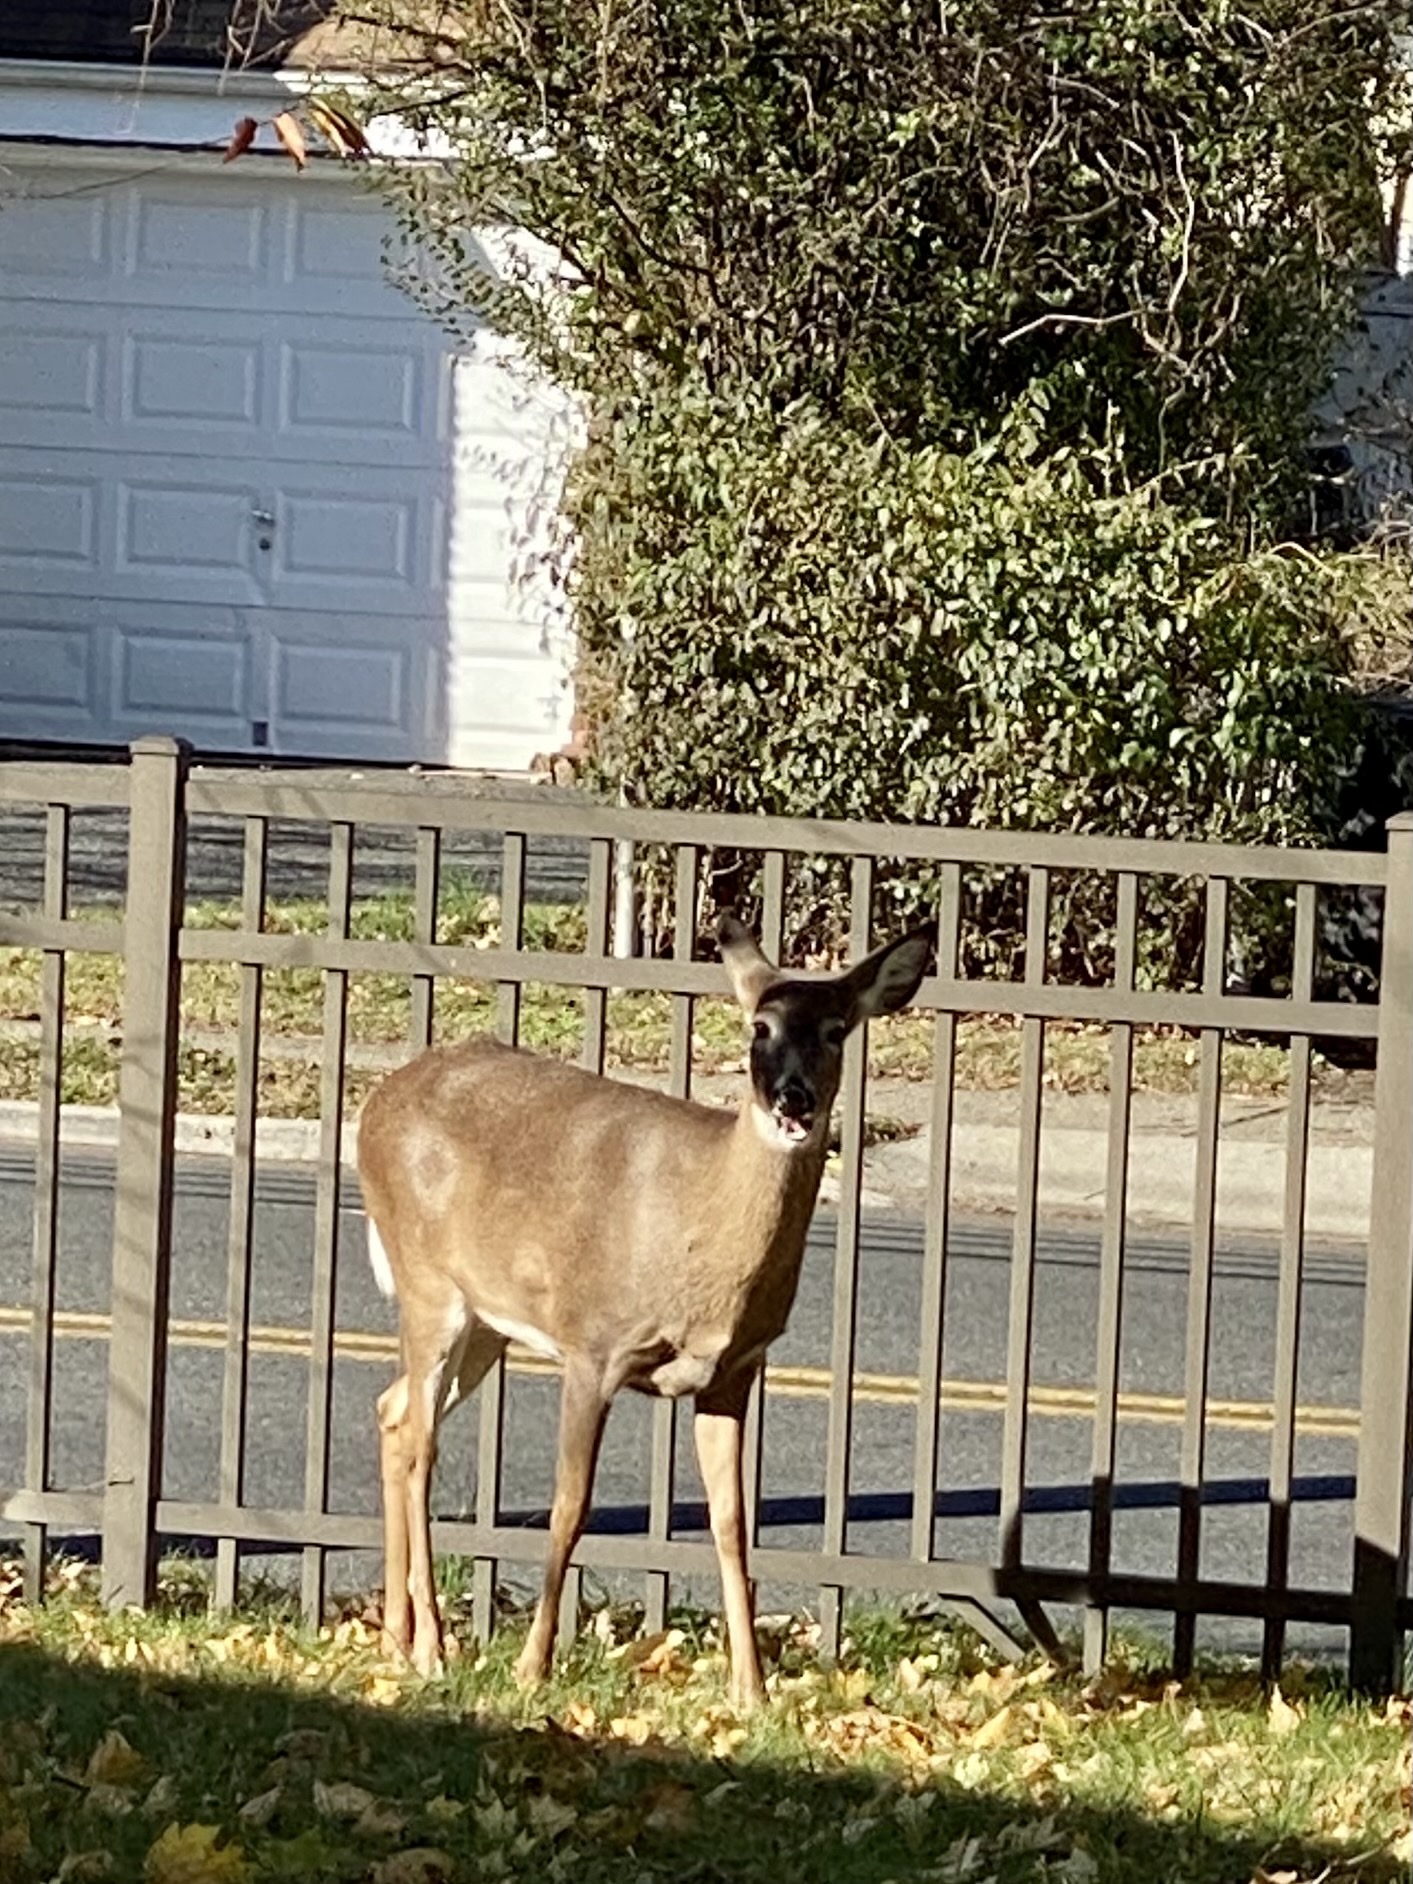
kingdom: Animalia
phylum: Chordata
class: Mammalia
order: Artiodactyla
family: Cervidae
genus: Odocoileus
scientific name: Odocoileus virginianus
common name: White-tailed deer
